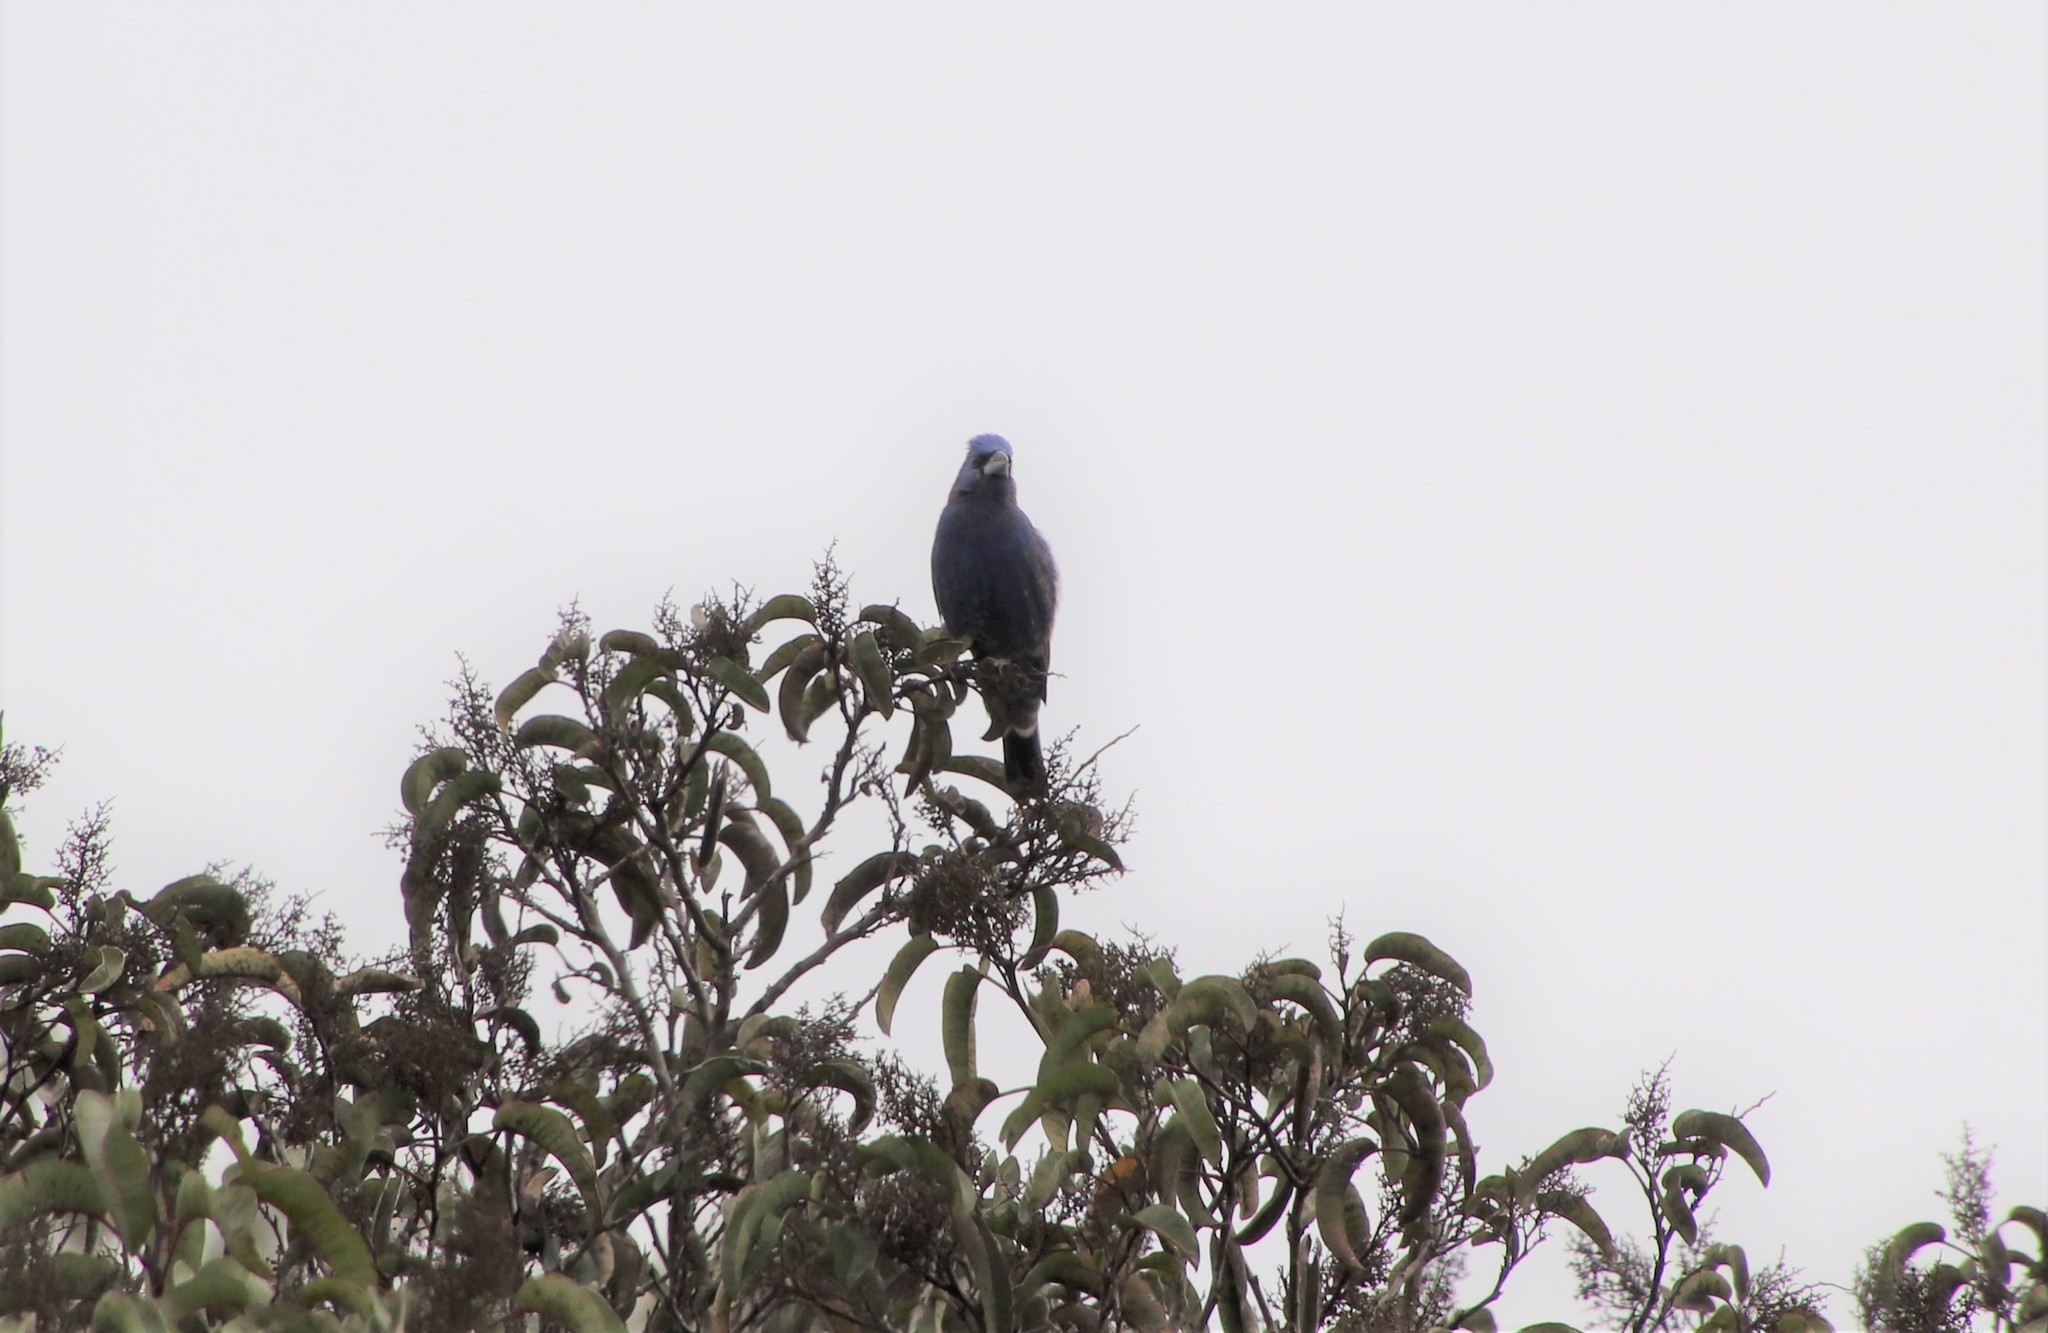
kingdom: Animalia
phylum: Chordata
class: Aves
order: Passeriformes
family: Cardinalidae
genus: Passerina
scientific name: Passerina caerulea
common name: Blue grosbeak
